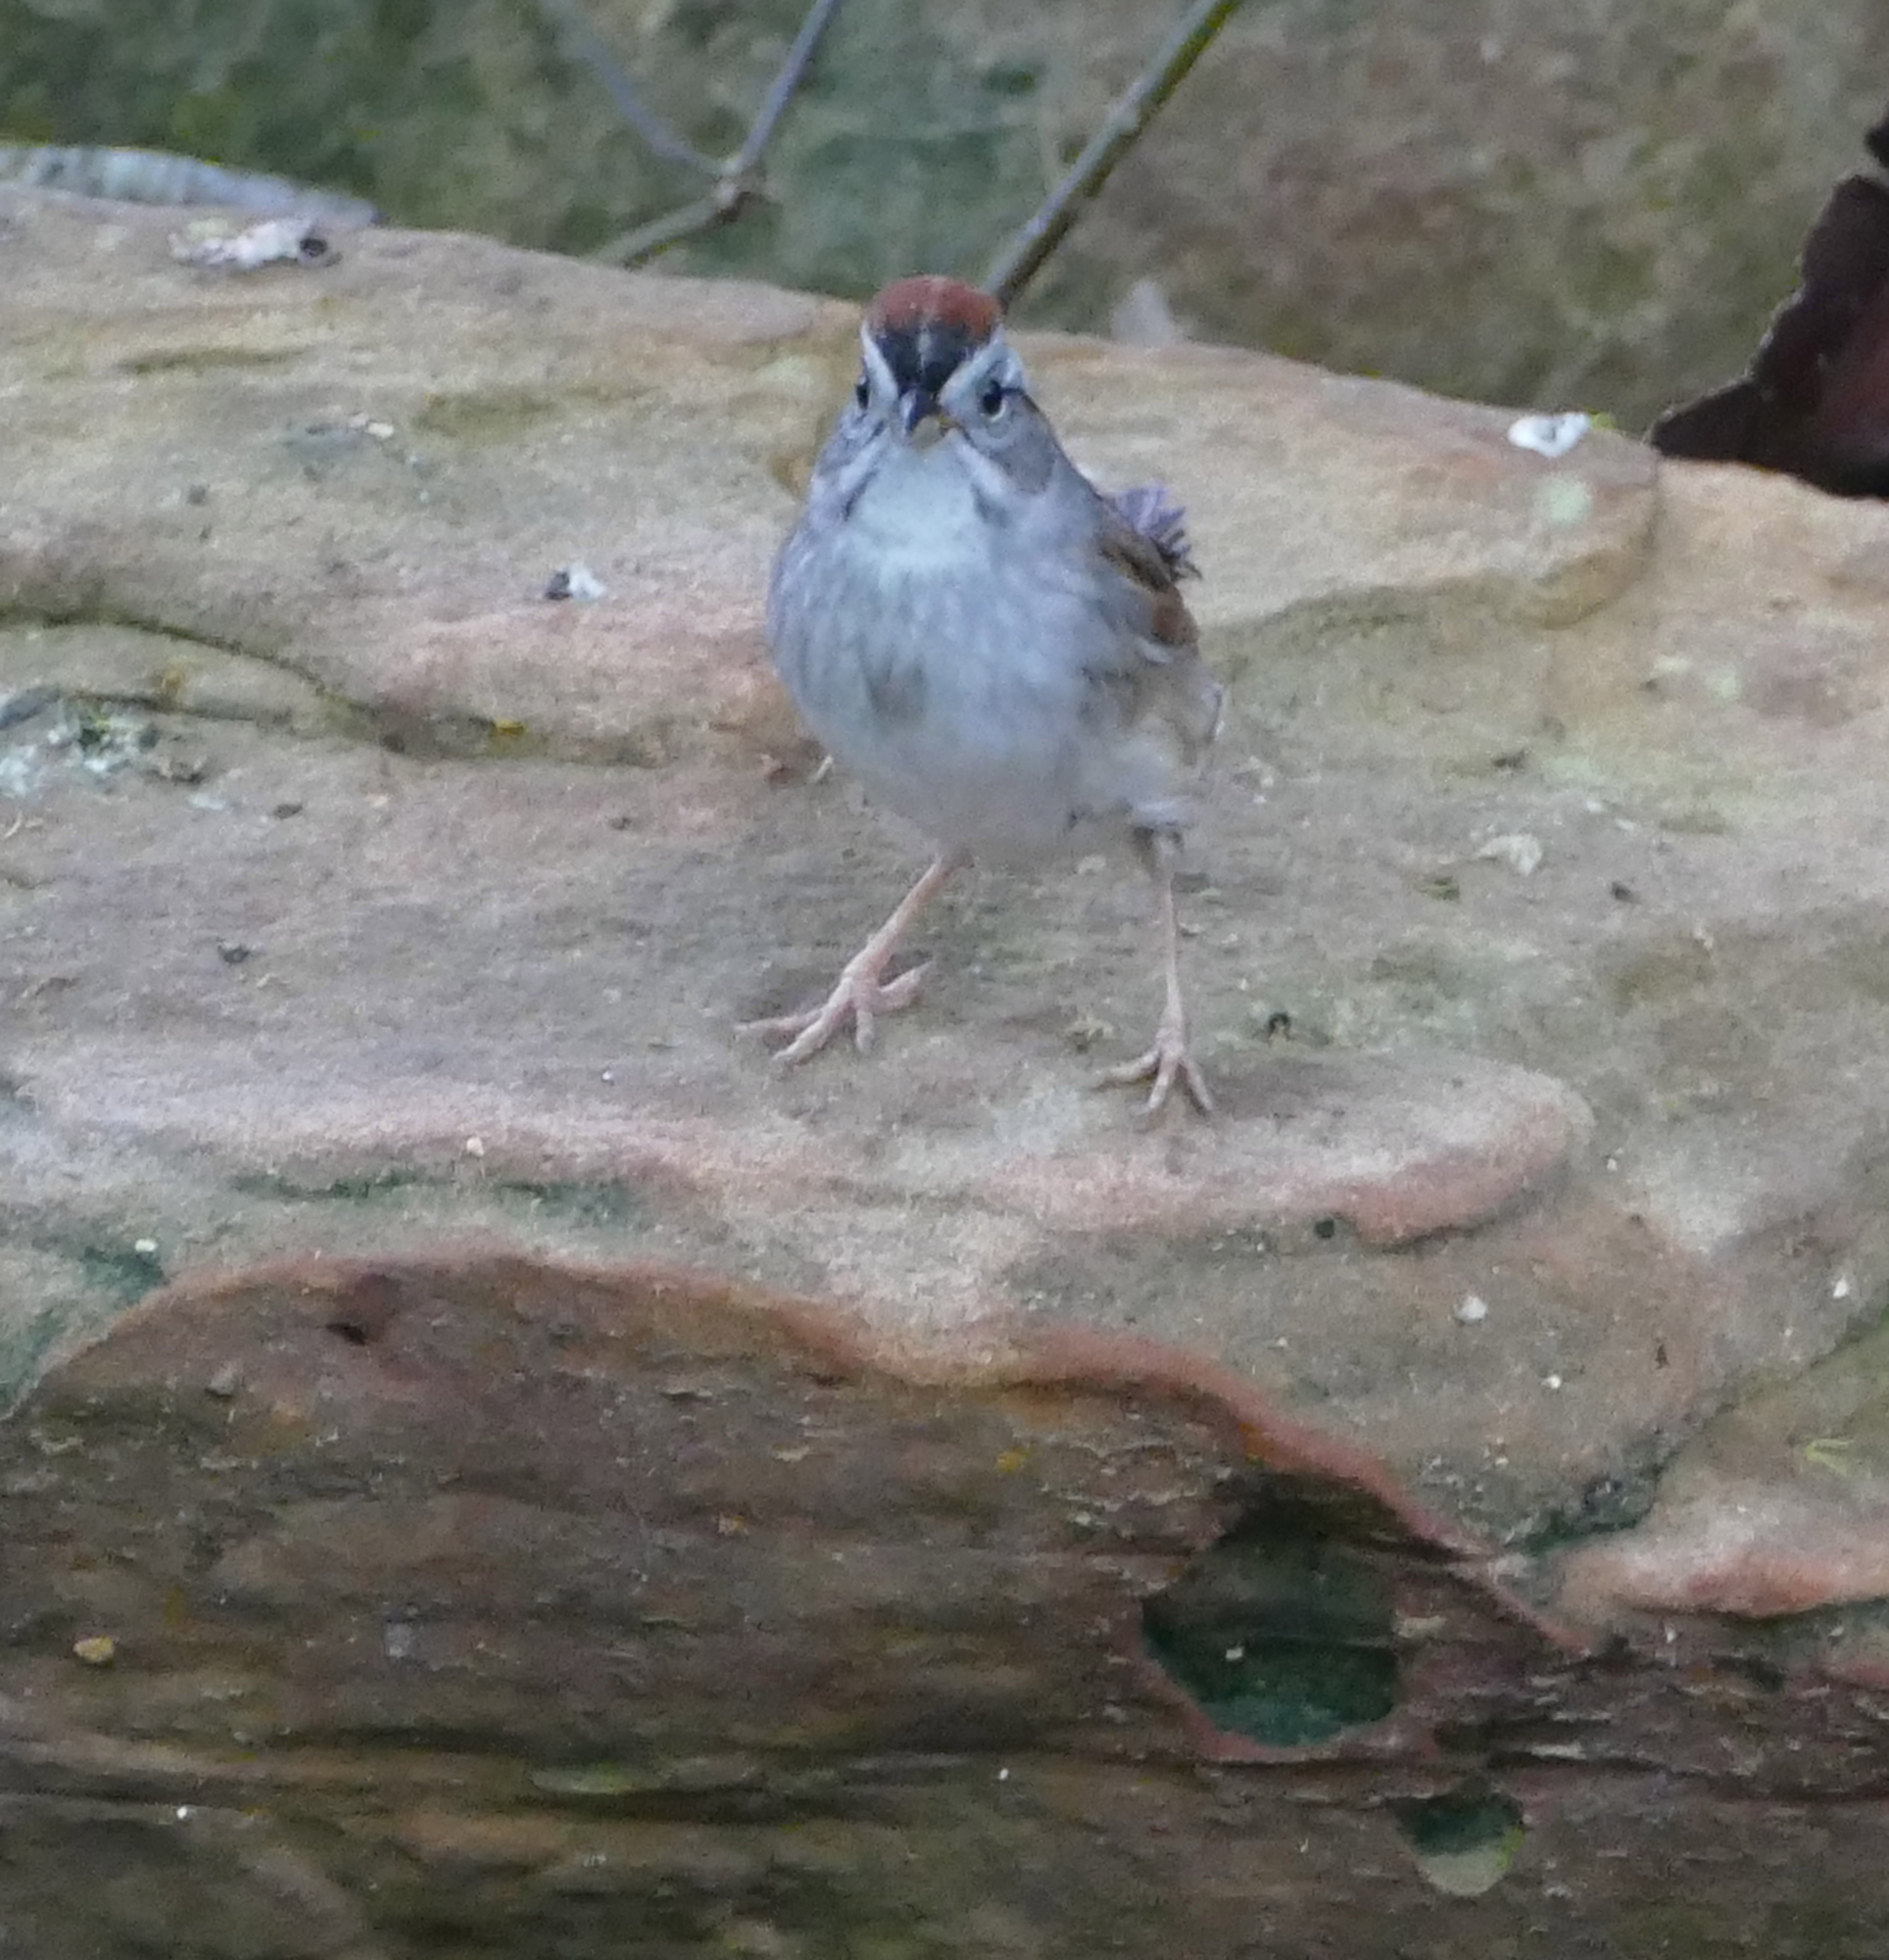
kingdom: Animalia
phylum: Chordata
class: Aves
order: Passeriformes
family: Passerellidae
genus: Melospiza
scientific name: Melospiza georgiana
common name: Swamp sparrow
